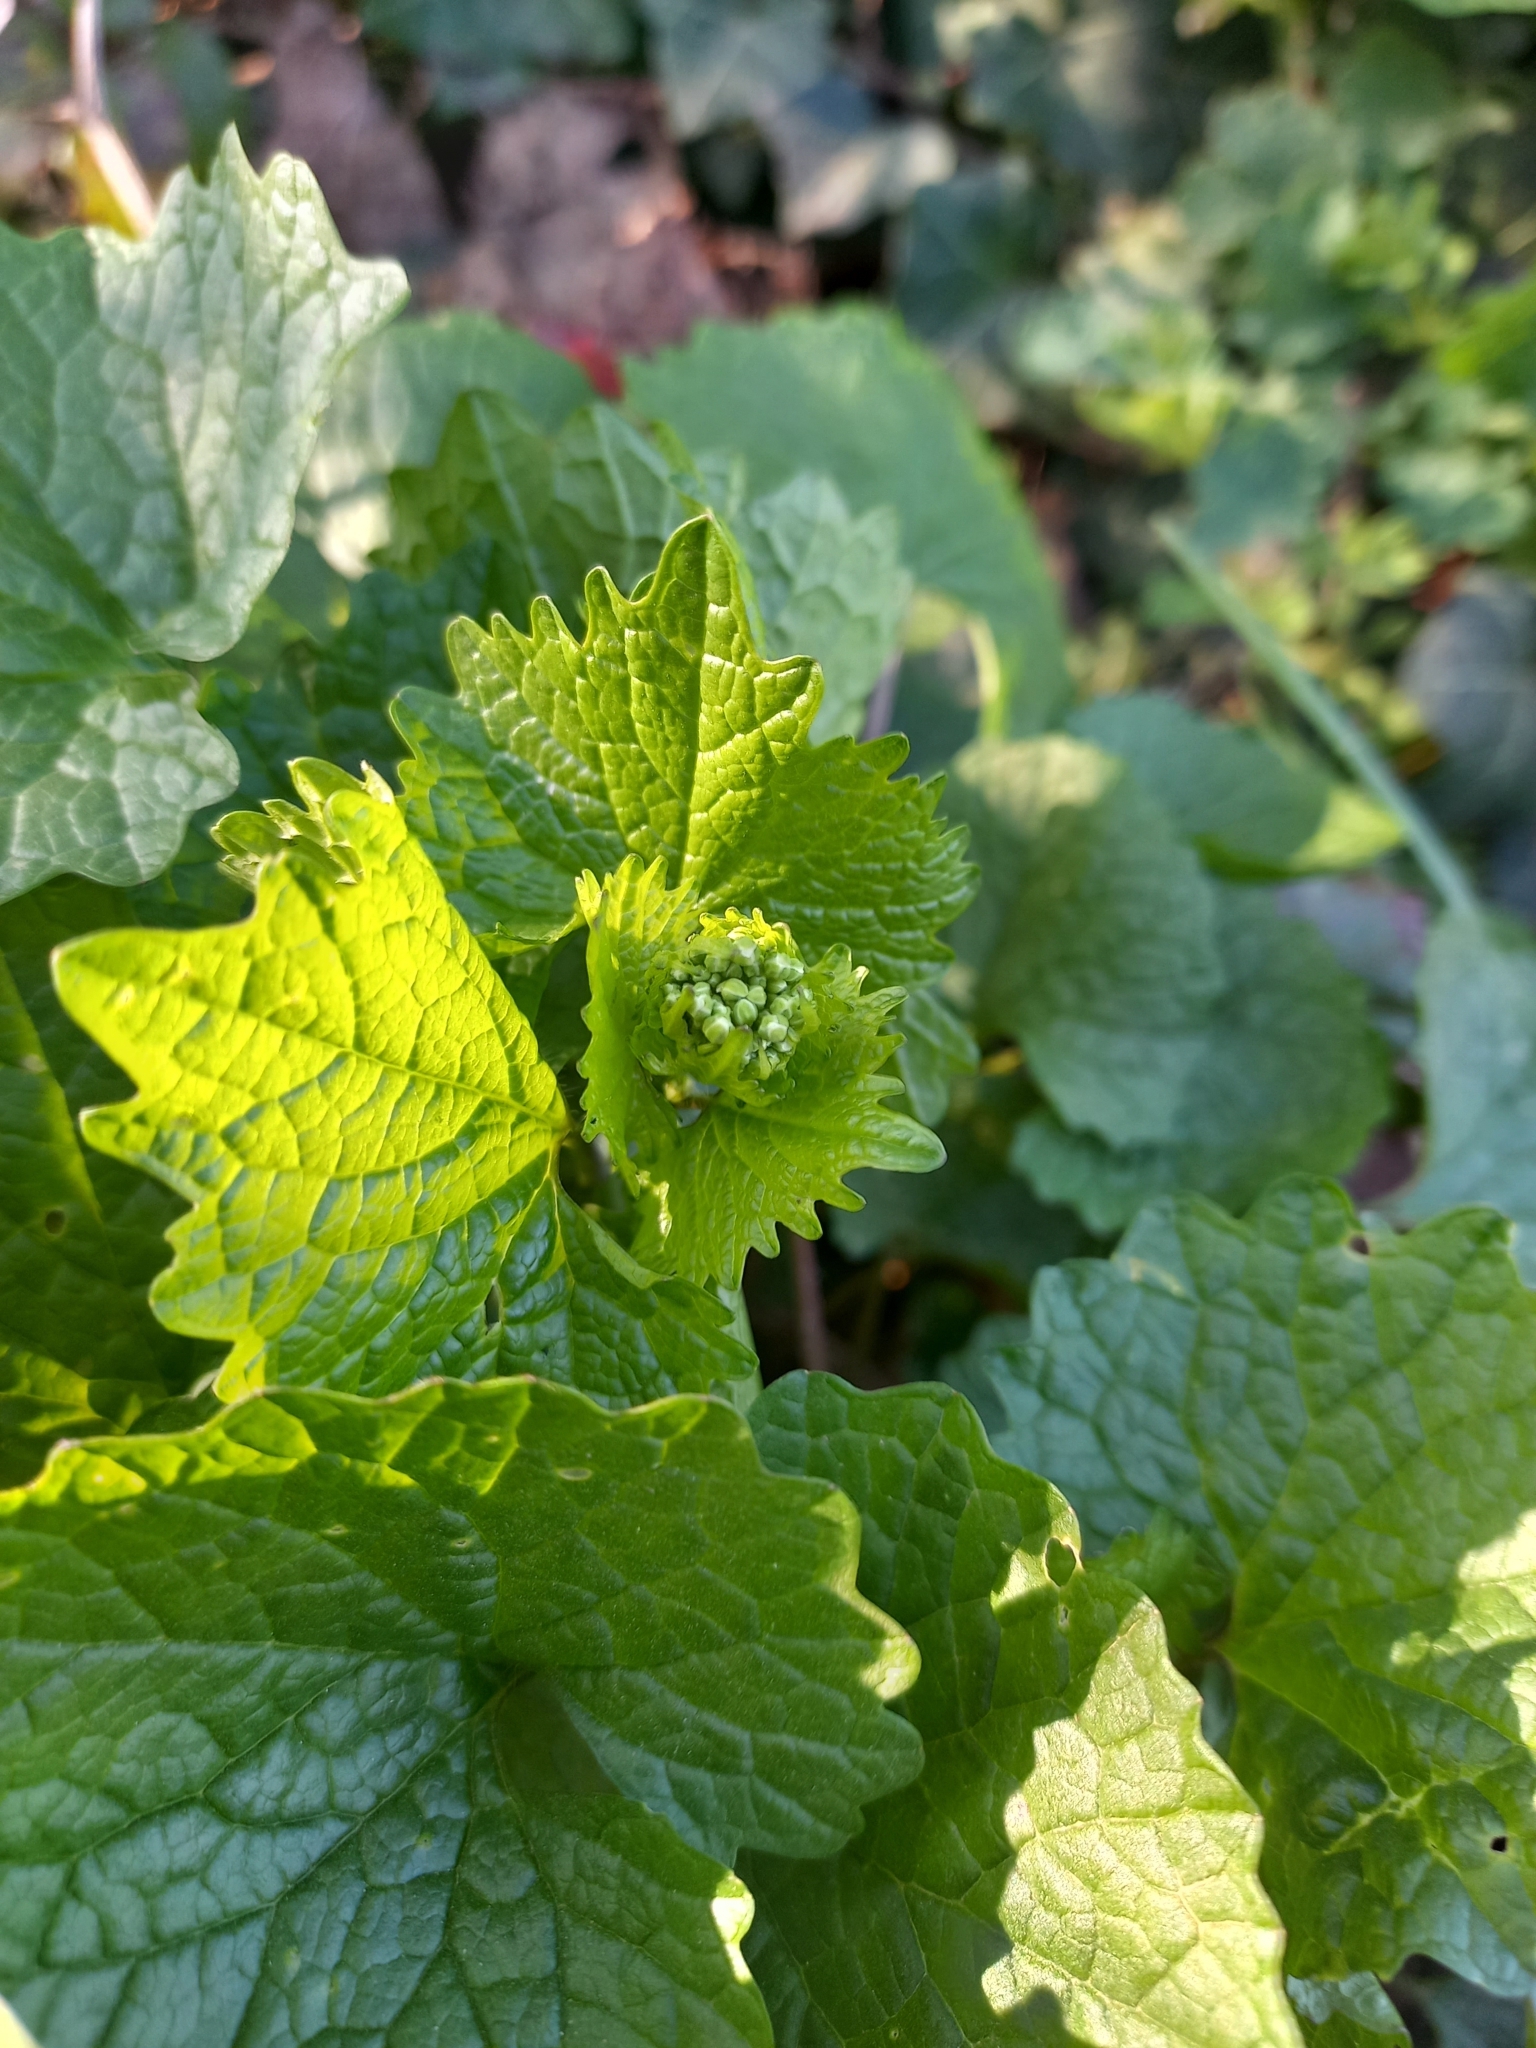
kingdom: Plantae
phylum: Tracheophyta
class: Magnoliopsida
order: Brassicales
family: Brassicaceae
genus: Alliaria
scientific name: Alliaria petiolata
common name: Garlic mustard
